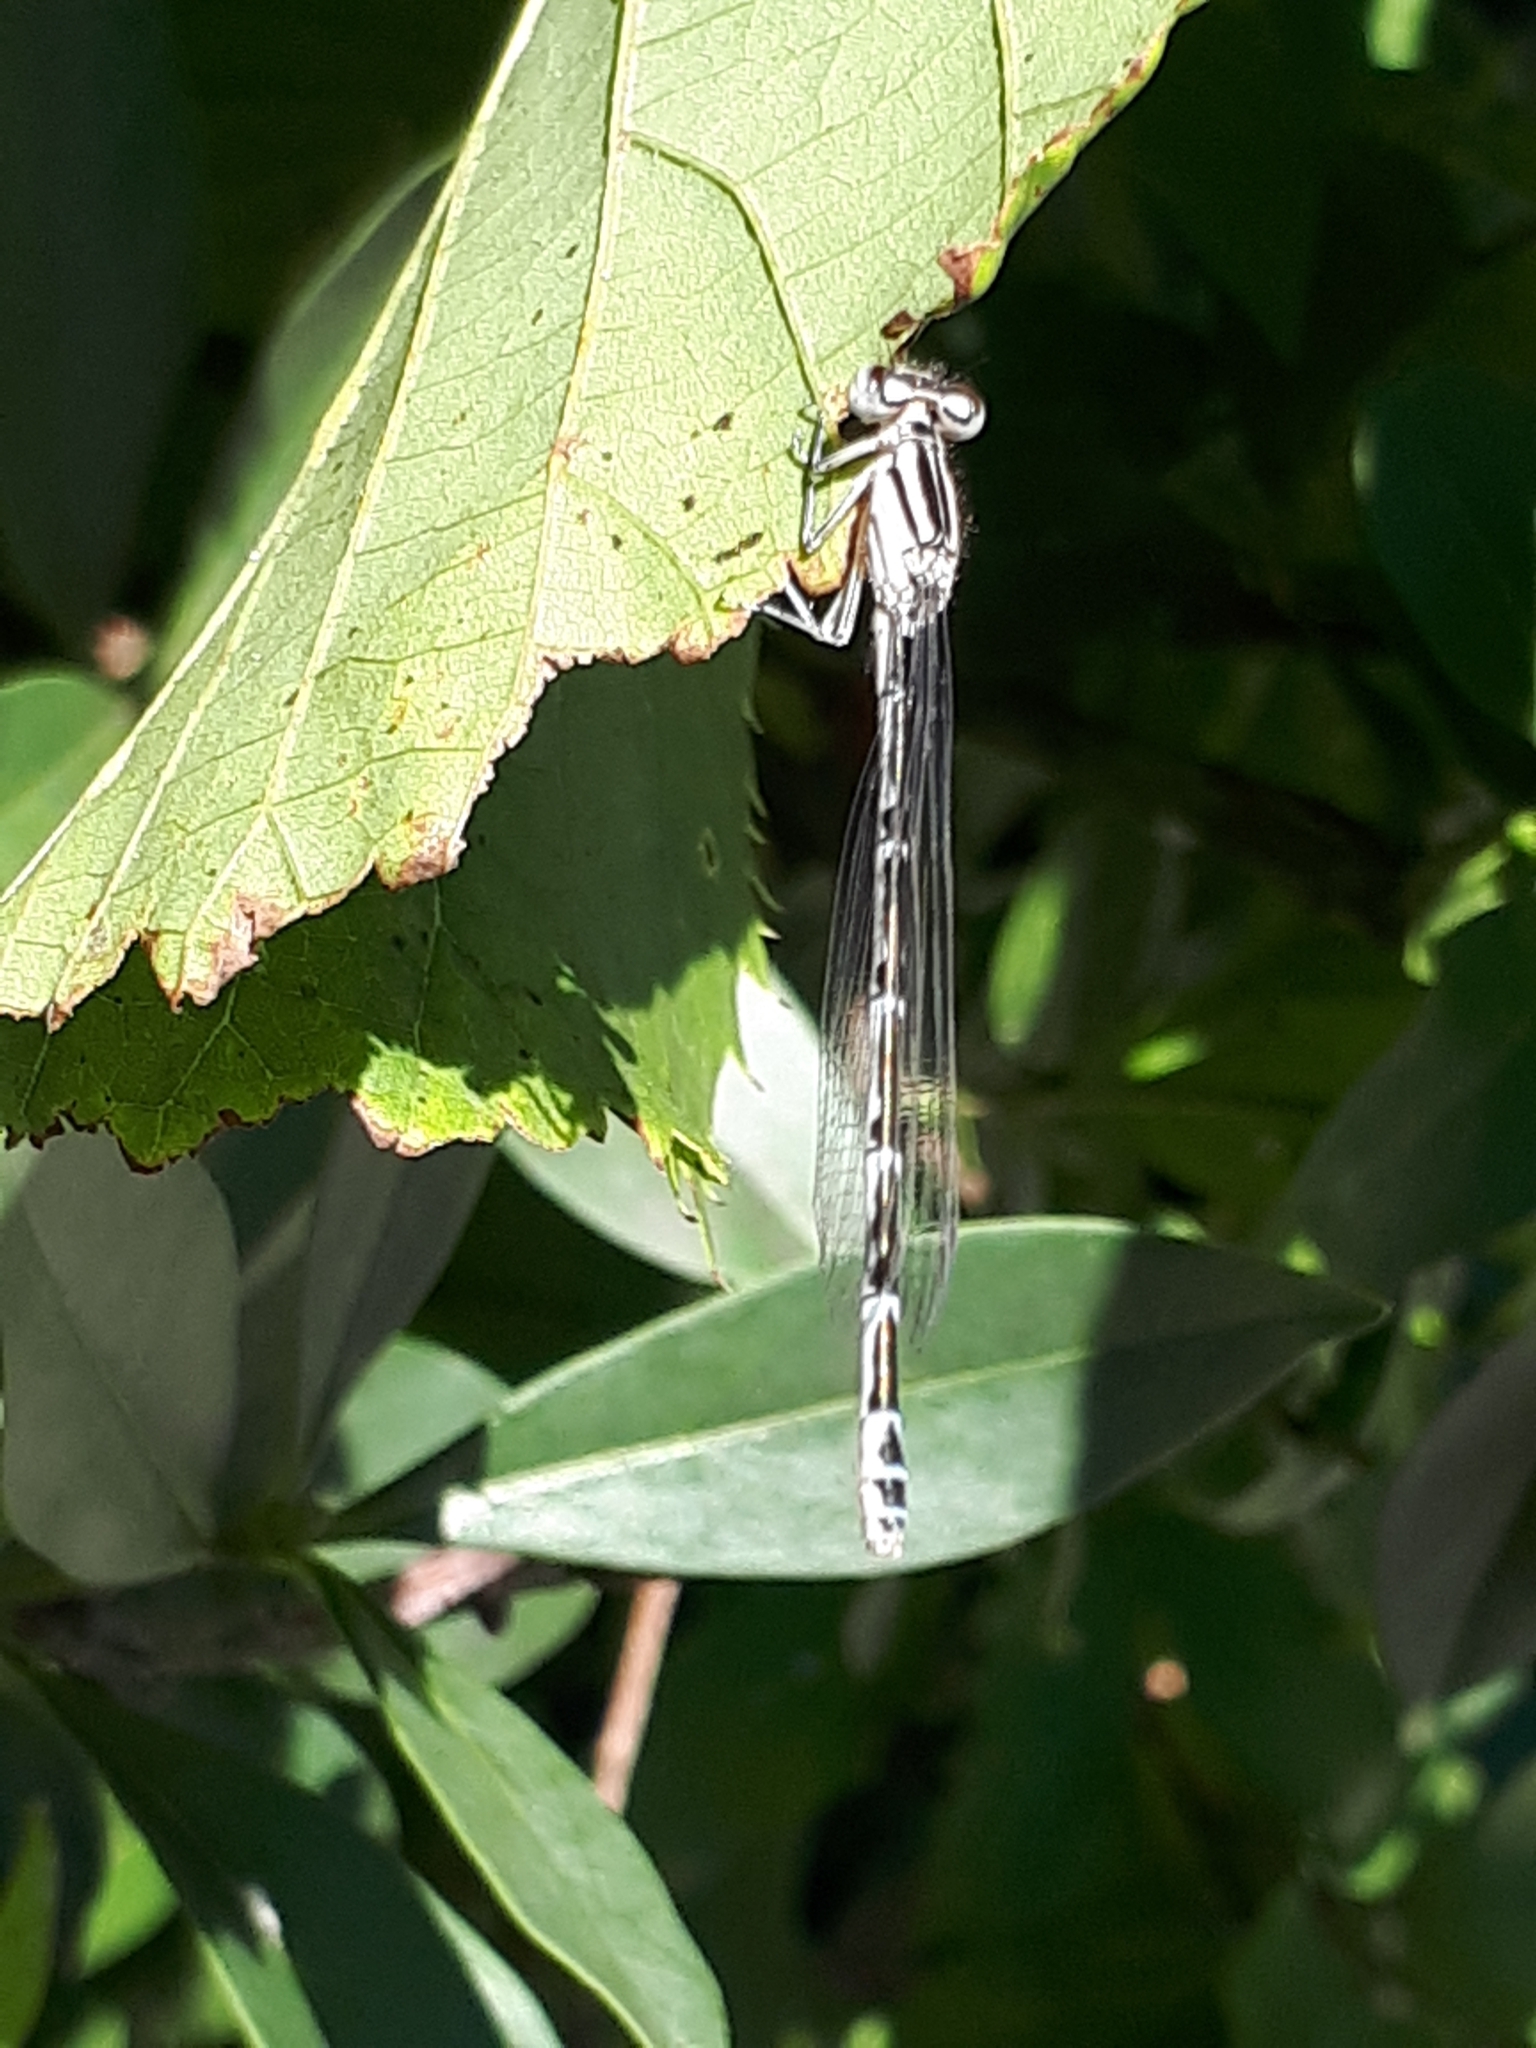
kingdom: Animalia
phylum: Arthropoda
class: Insecta
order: Odonata
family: Coenagrionidae
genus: Enallagma
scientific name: Enallagma cyathigerum
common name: Common blue damselfly
